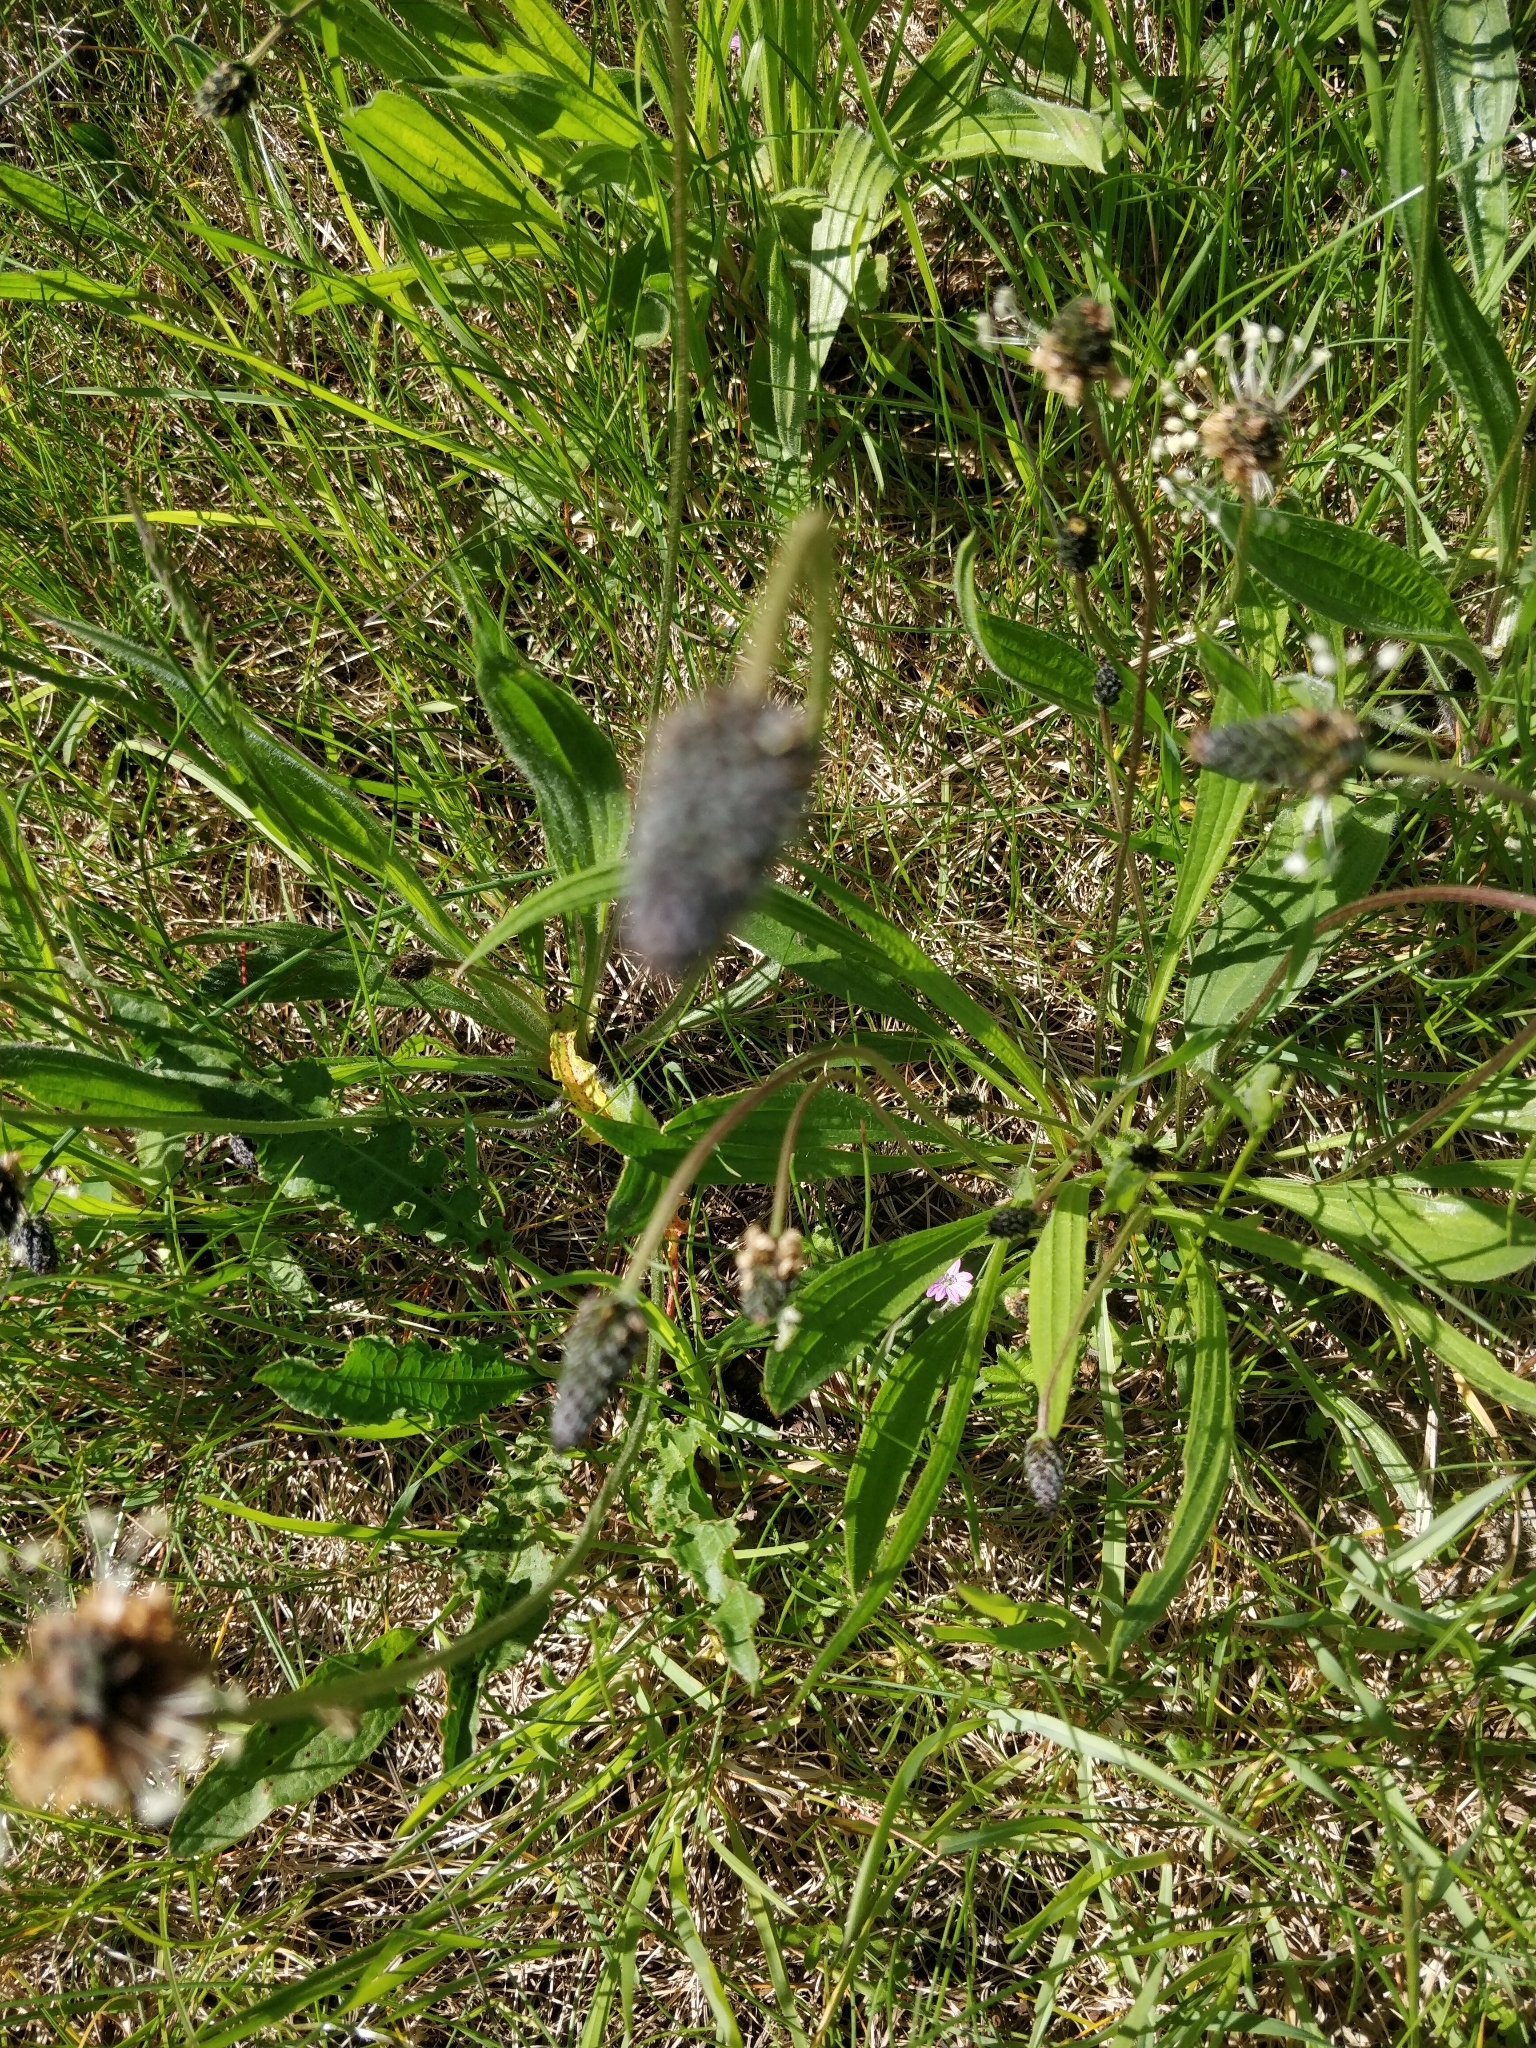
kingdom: Plantae
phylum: Tracheophyta
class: Magnoliopsida
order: Lamiales
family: Plantaginaceae
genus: Plantago
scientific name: Plantago lanceolata
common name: Ribwort plantain
